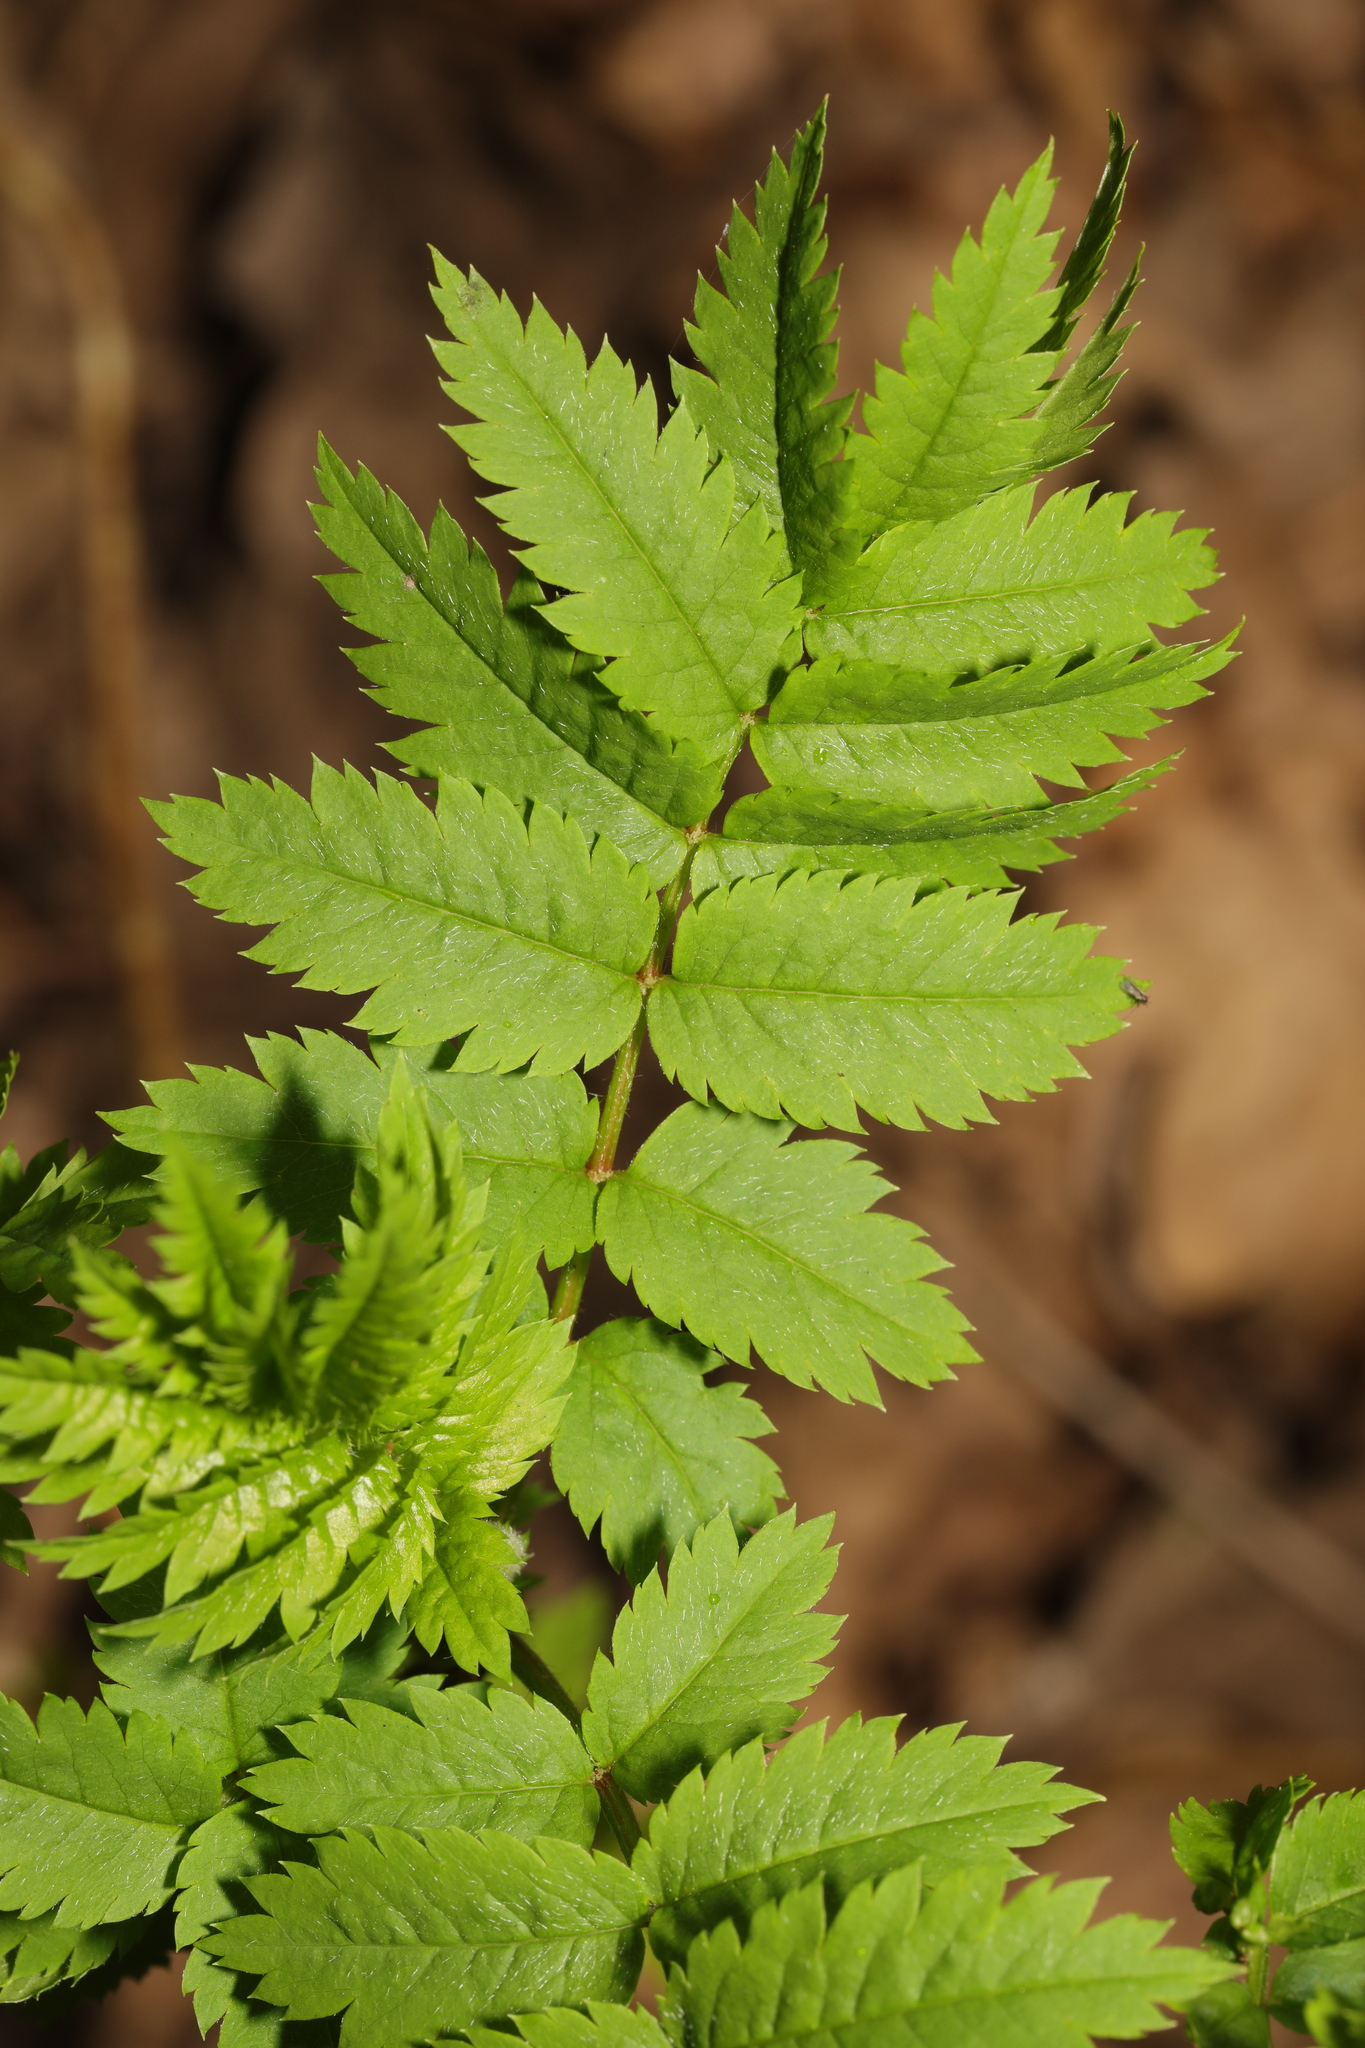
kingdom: Plantae
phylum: Tracheophyta
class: Magnoliopsida
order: Rosales
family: Rosaceae
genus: Sorbus
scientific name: Sorbus aucuparia
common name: Rowan
